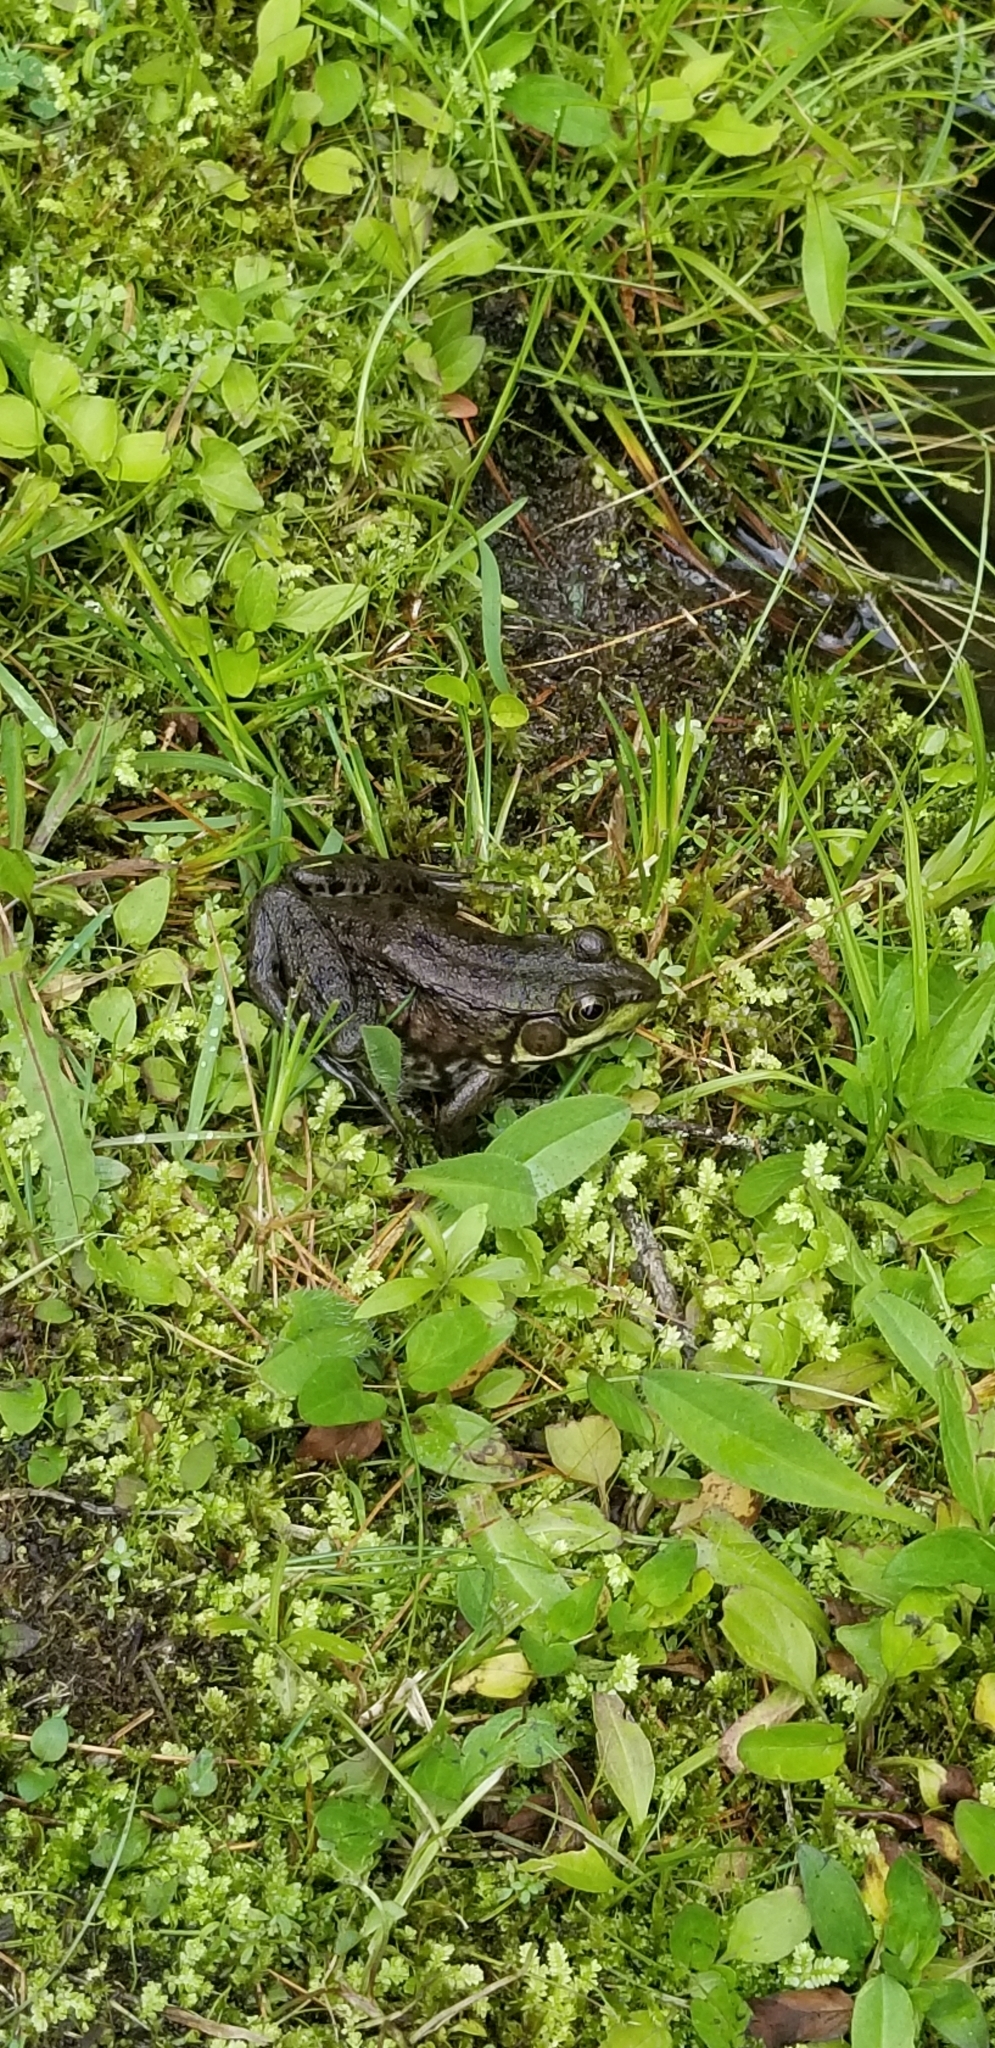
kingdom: Animalia
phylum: Chordata
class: Amphibia
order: Anura
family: Ranidae
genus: Lithobates
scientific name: Lithobates clamitans
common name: Green frog
